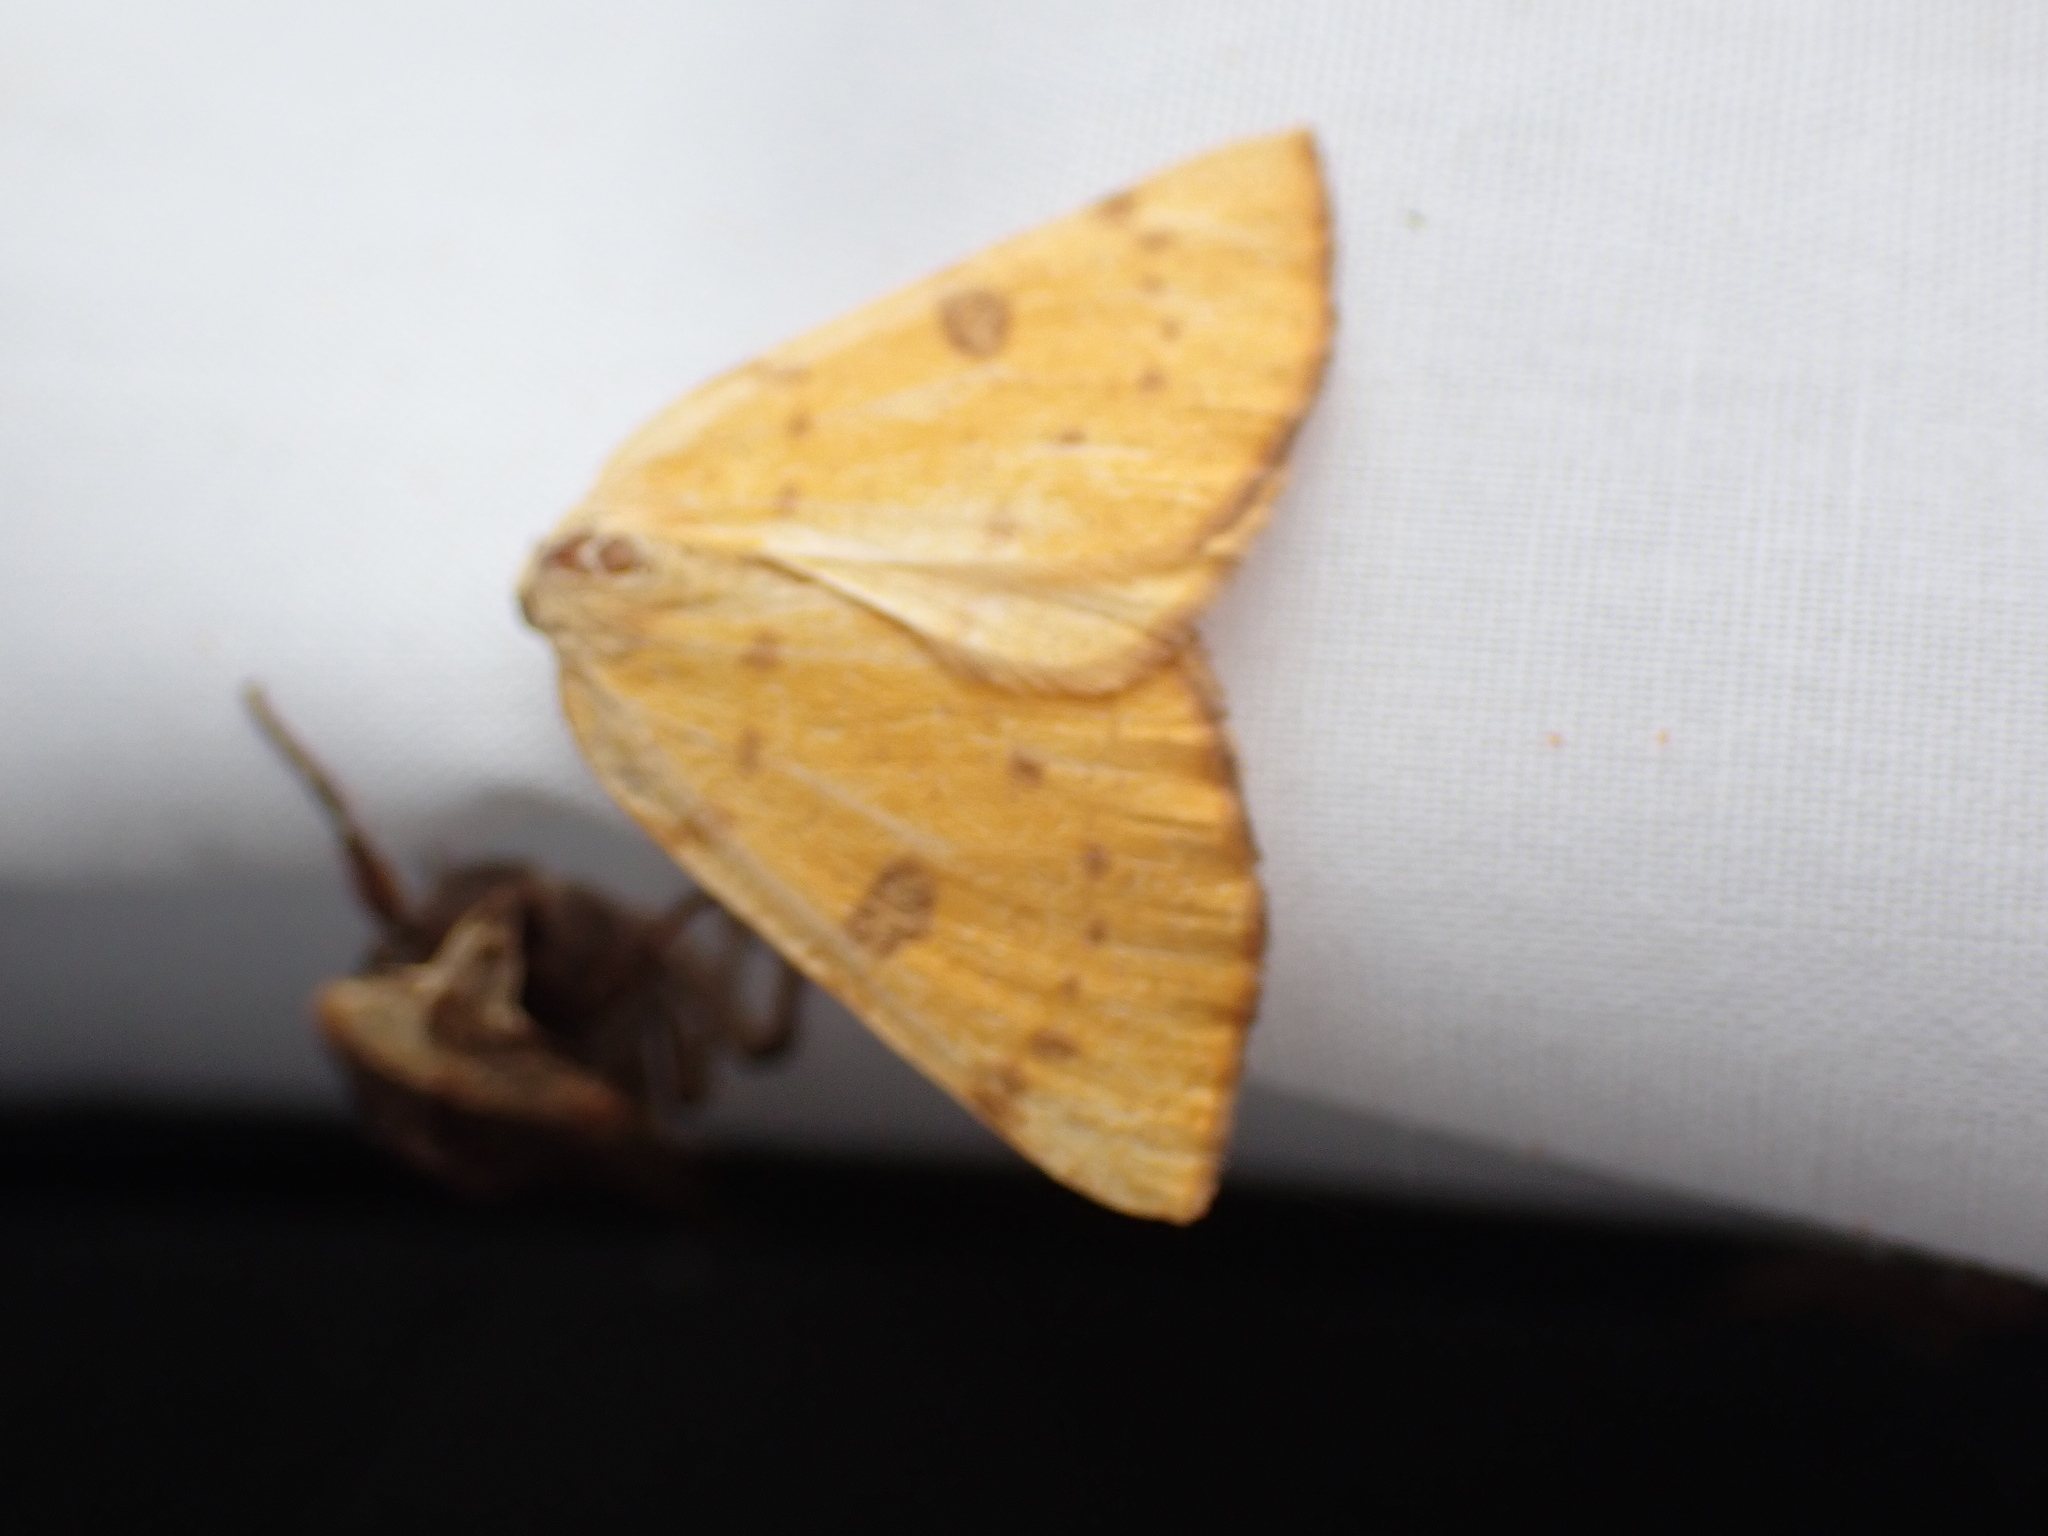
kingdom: Animalia
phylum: Arthropoda
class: Insecta
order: Lepidoptera
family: Geometridae
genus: Hesperumia
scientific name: Hesperumia sulphuraria
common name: Sulphur moth
